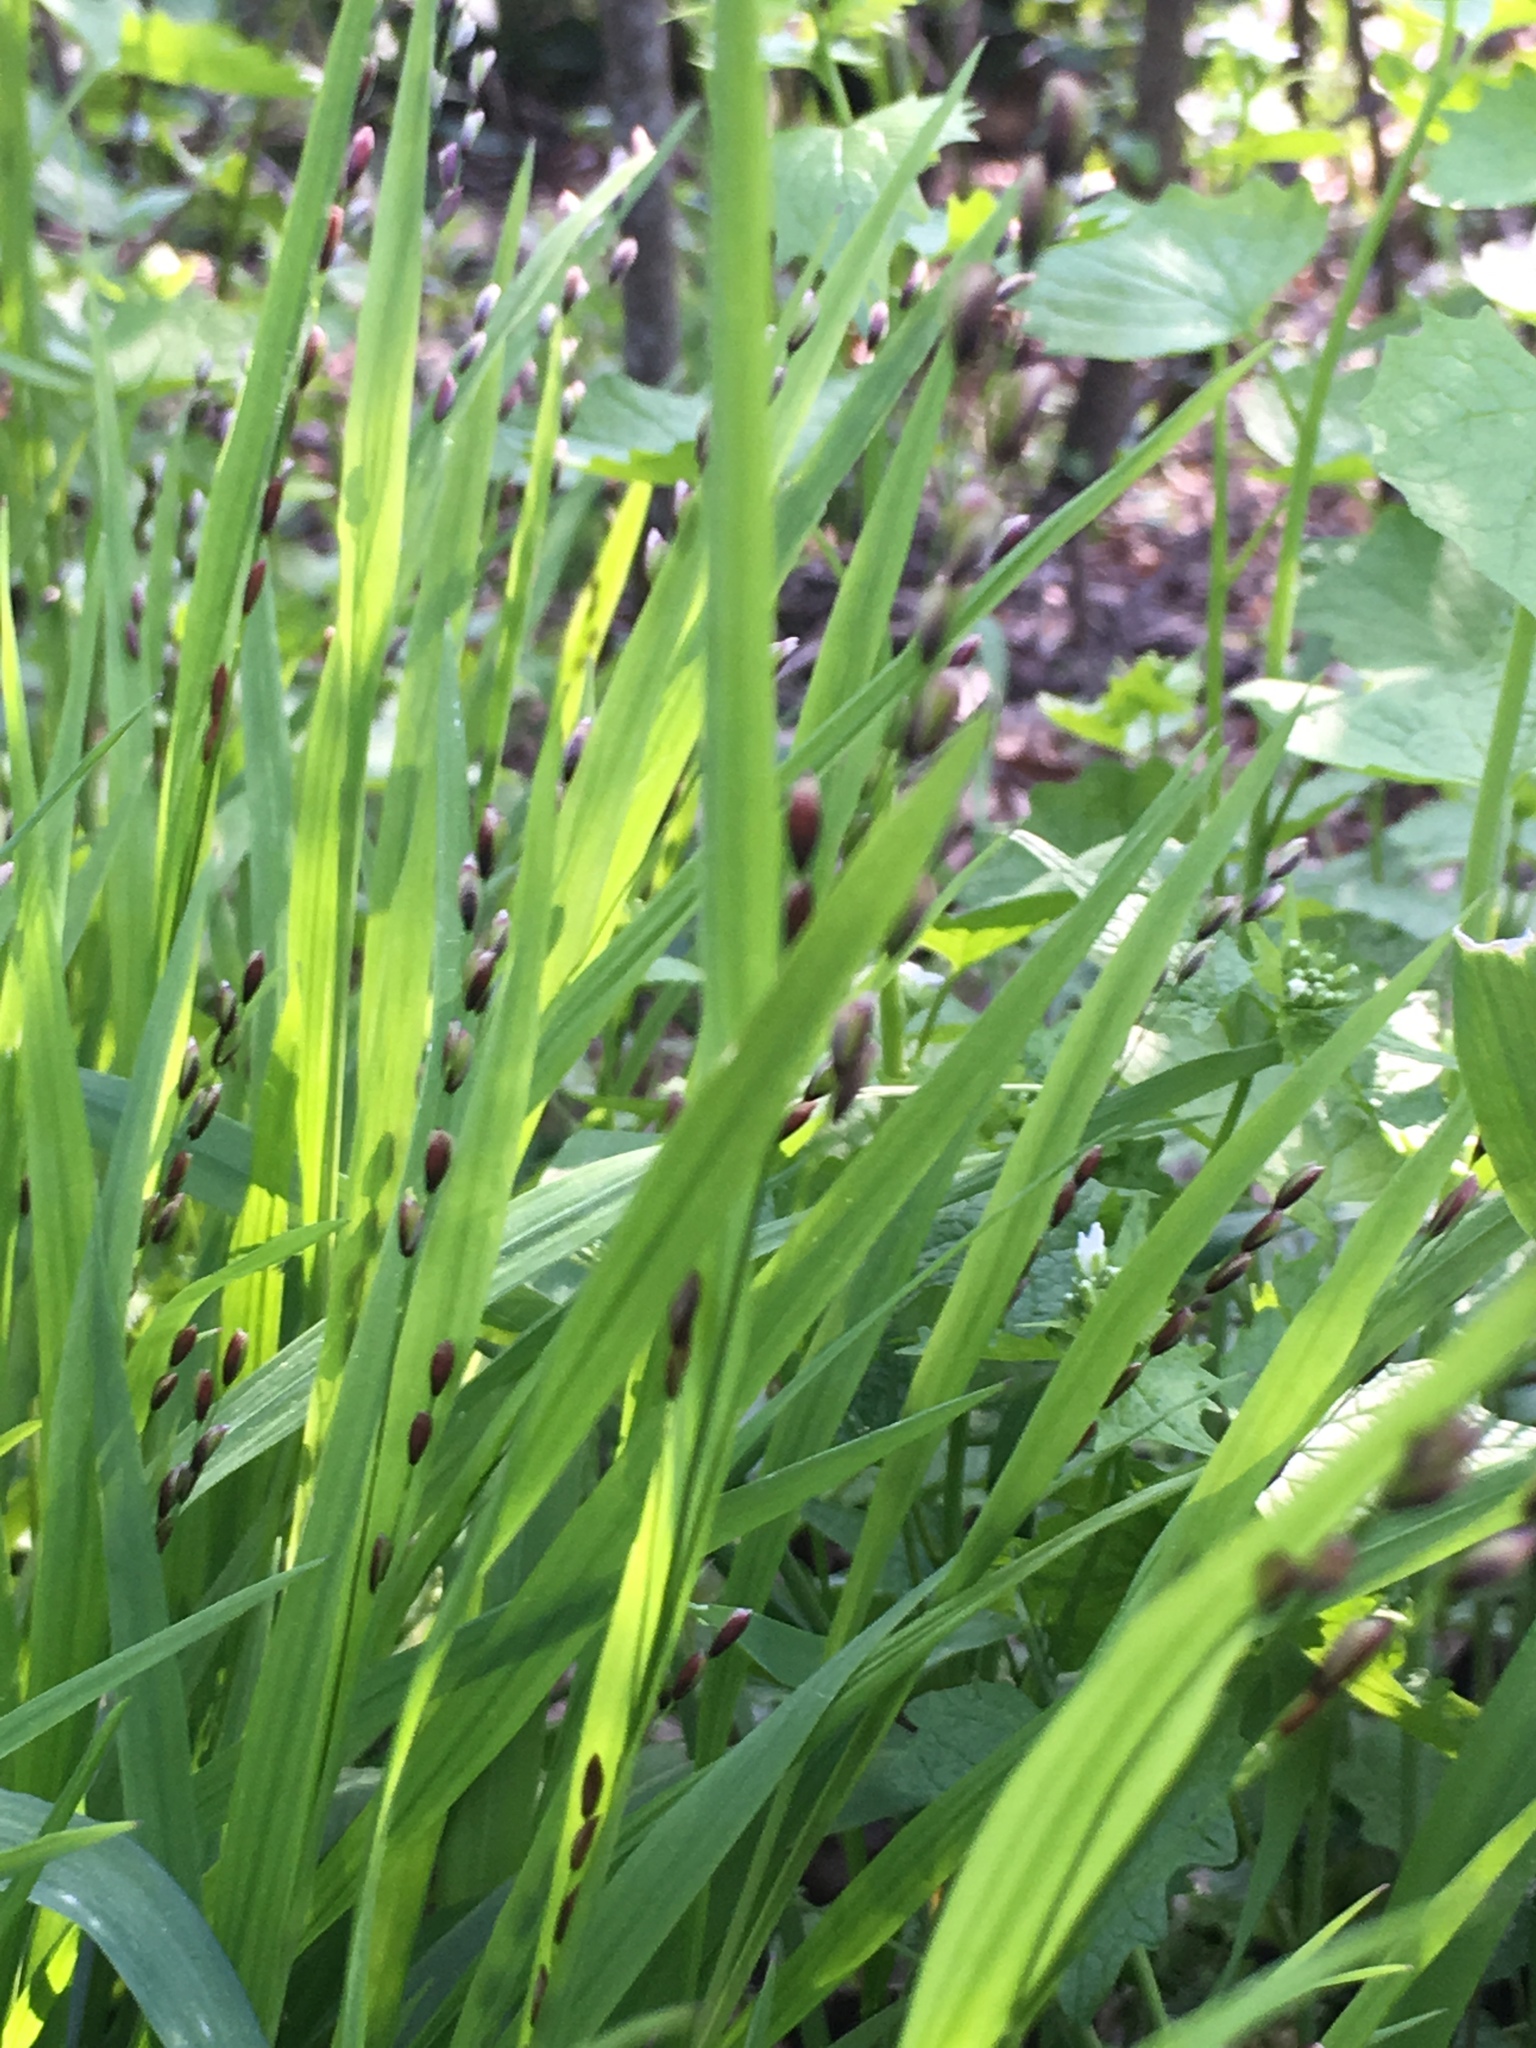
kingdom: Plantae
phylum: Tracheophyta
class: Liliopsida
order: Poales
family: Poaceae
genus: Melica
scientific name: Melica uniflora
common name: Wood melick
